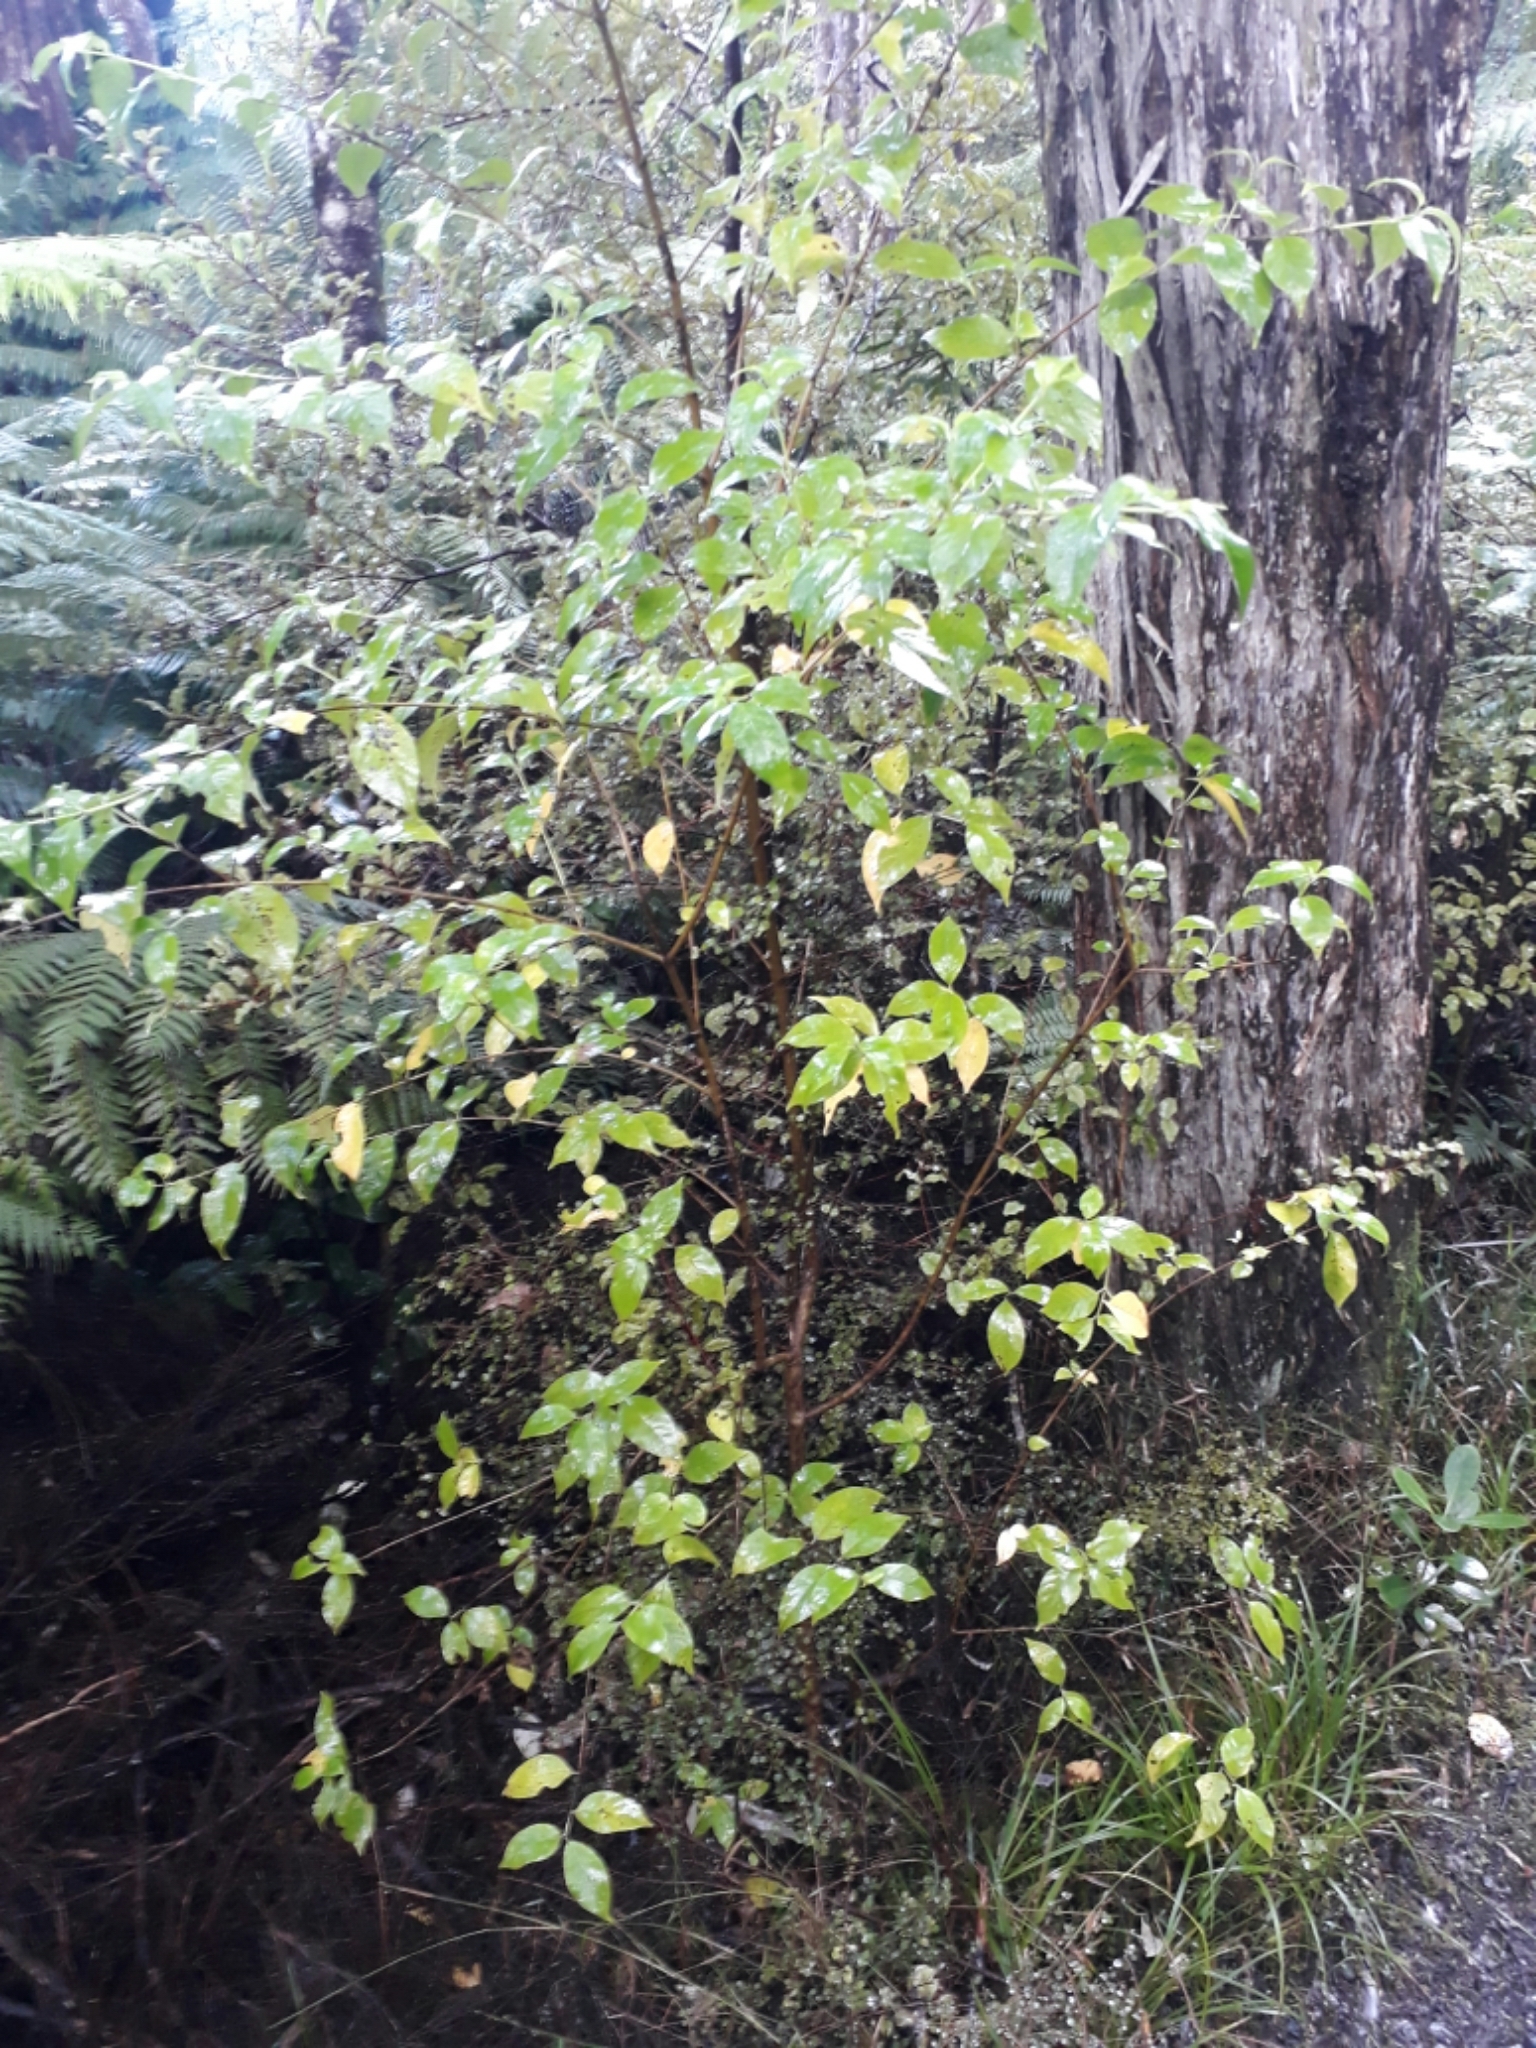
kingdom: Plantae
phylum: Tracheophyta
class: Magnoliopsida
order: Gentianales
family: Loganiaceae
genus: Geniostoma
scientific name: Geniostoma ligustrifolium
